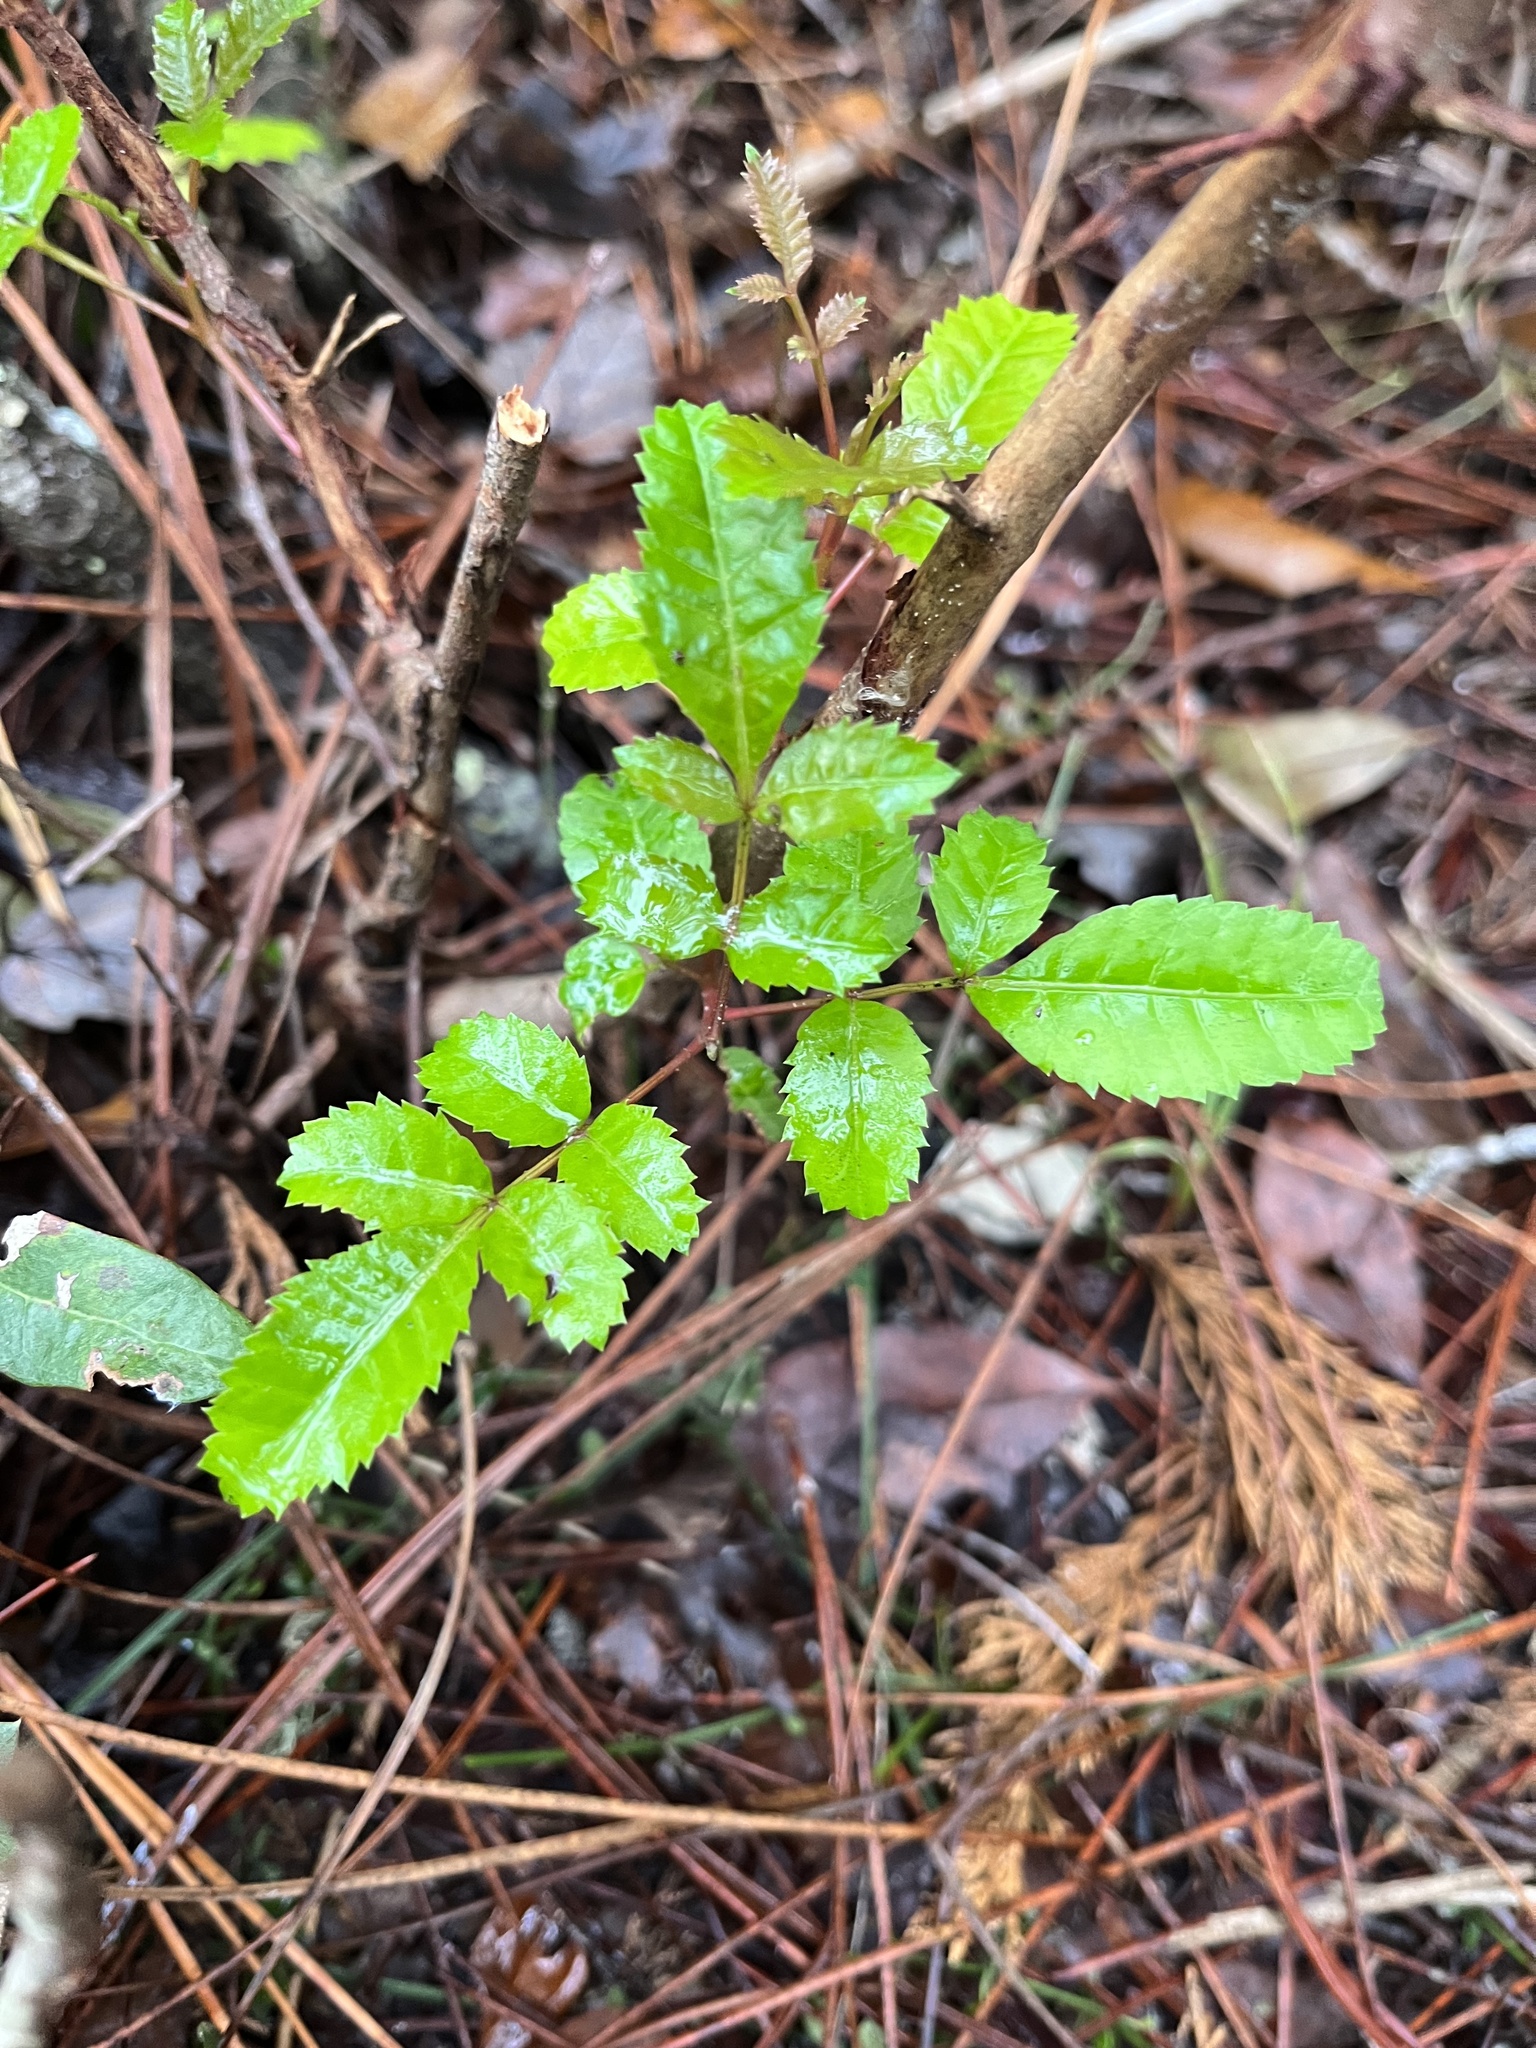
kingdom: Plantae
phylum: Tracheophyta
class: Magnoliopsida
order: Sapindales
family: Anacardiaceae
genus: Schinus
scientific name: Schinus terebinthifolia
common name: Brazilian peppertree
